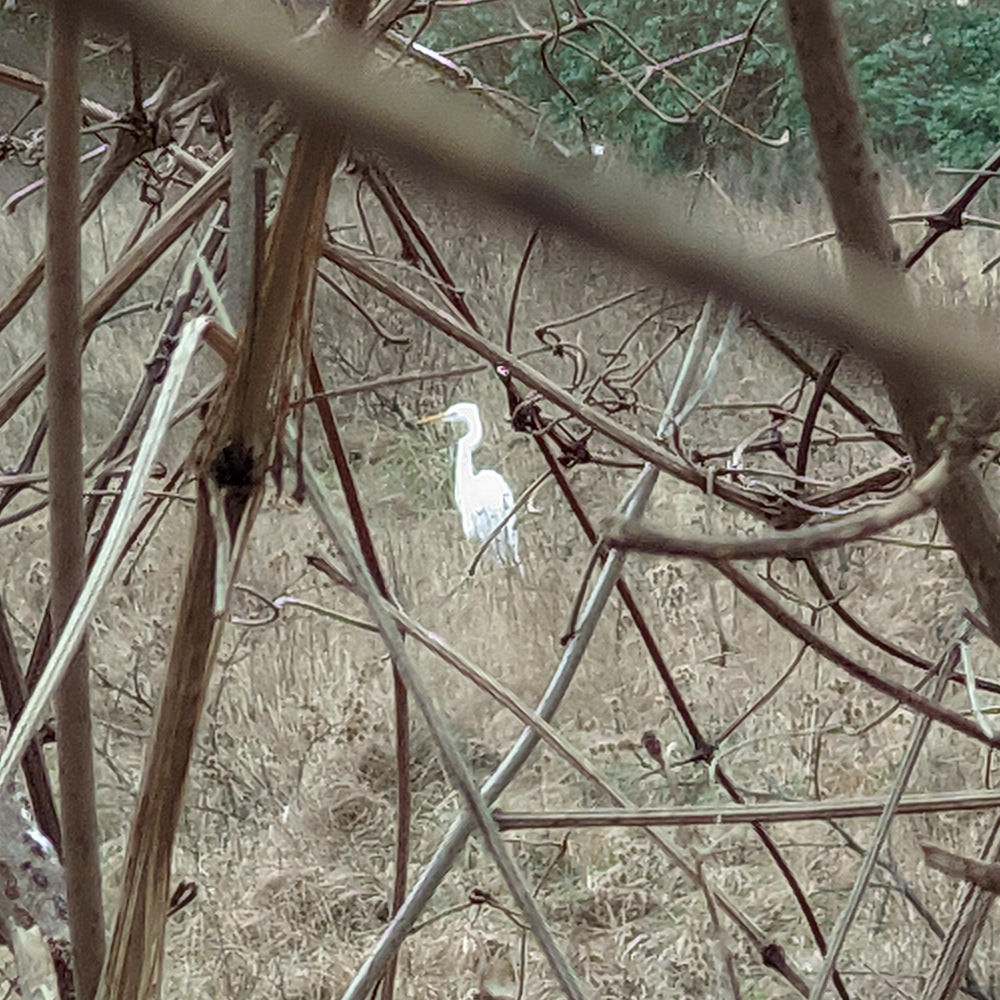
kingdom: Animalia
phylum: Chordata
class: Aves
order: Pelecaniformes
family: Ardeidae
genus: Ardea
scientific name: Ardea alba
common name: Great egret
